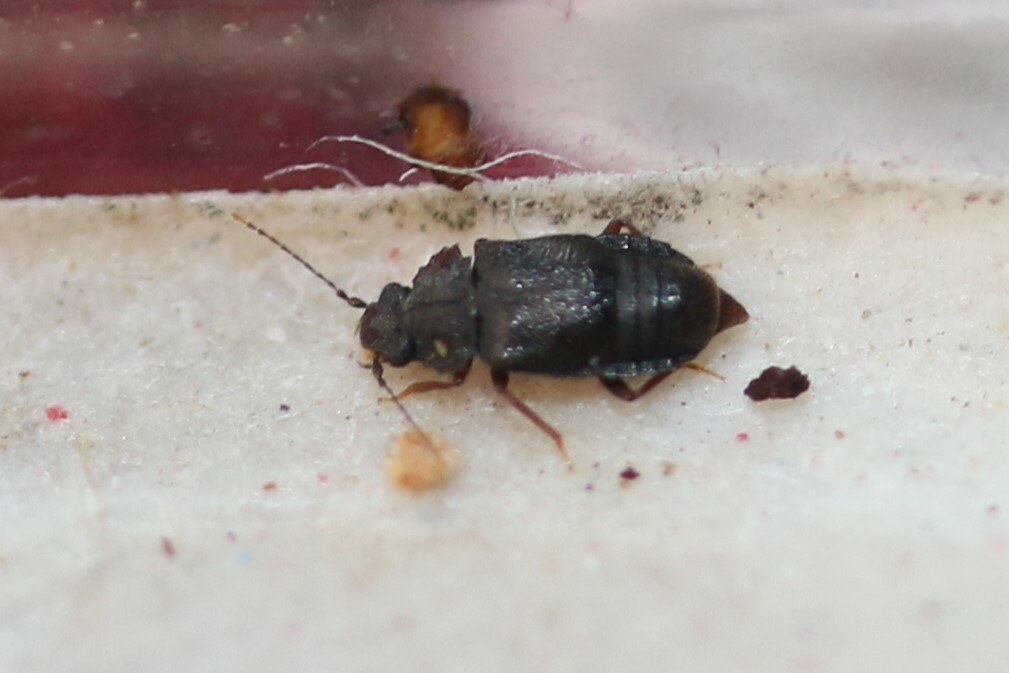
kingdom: Animalia
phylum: Arthropoda
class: Insecta
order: Coleoptera
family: Staphylinidae
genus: Megarthrus
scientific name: Megarthrus
